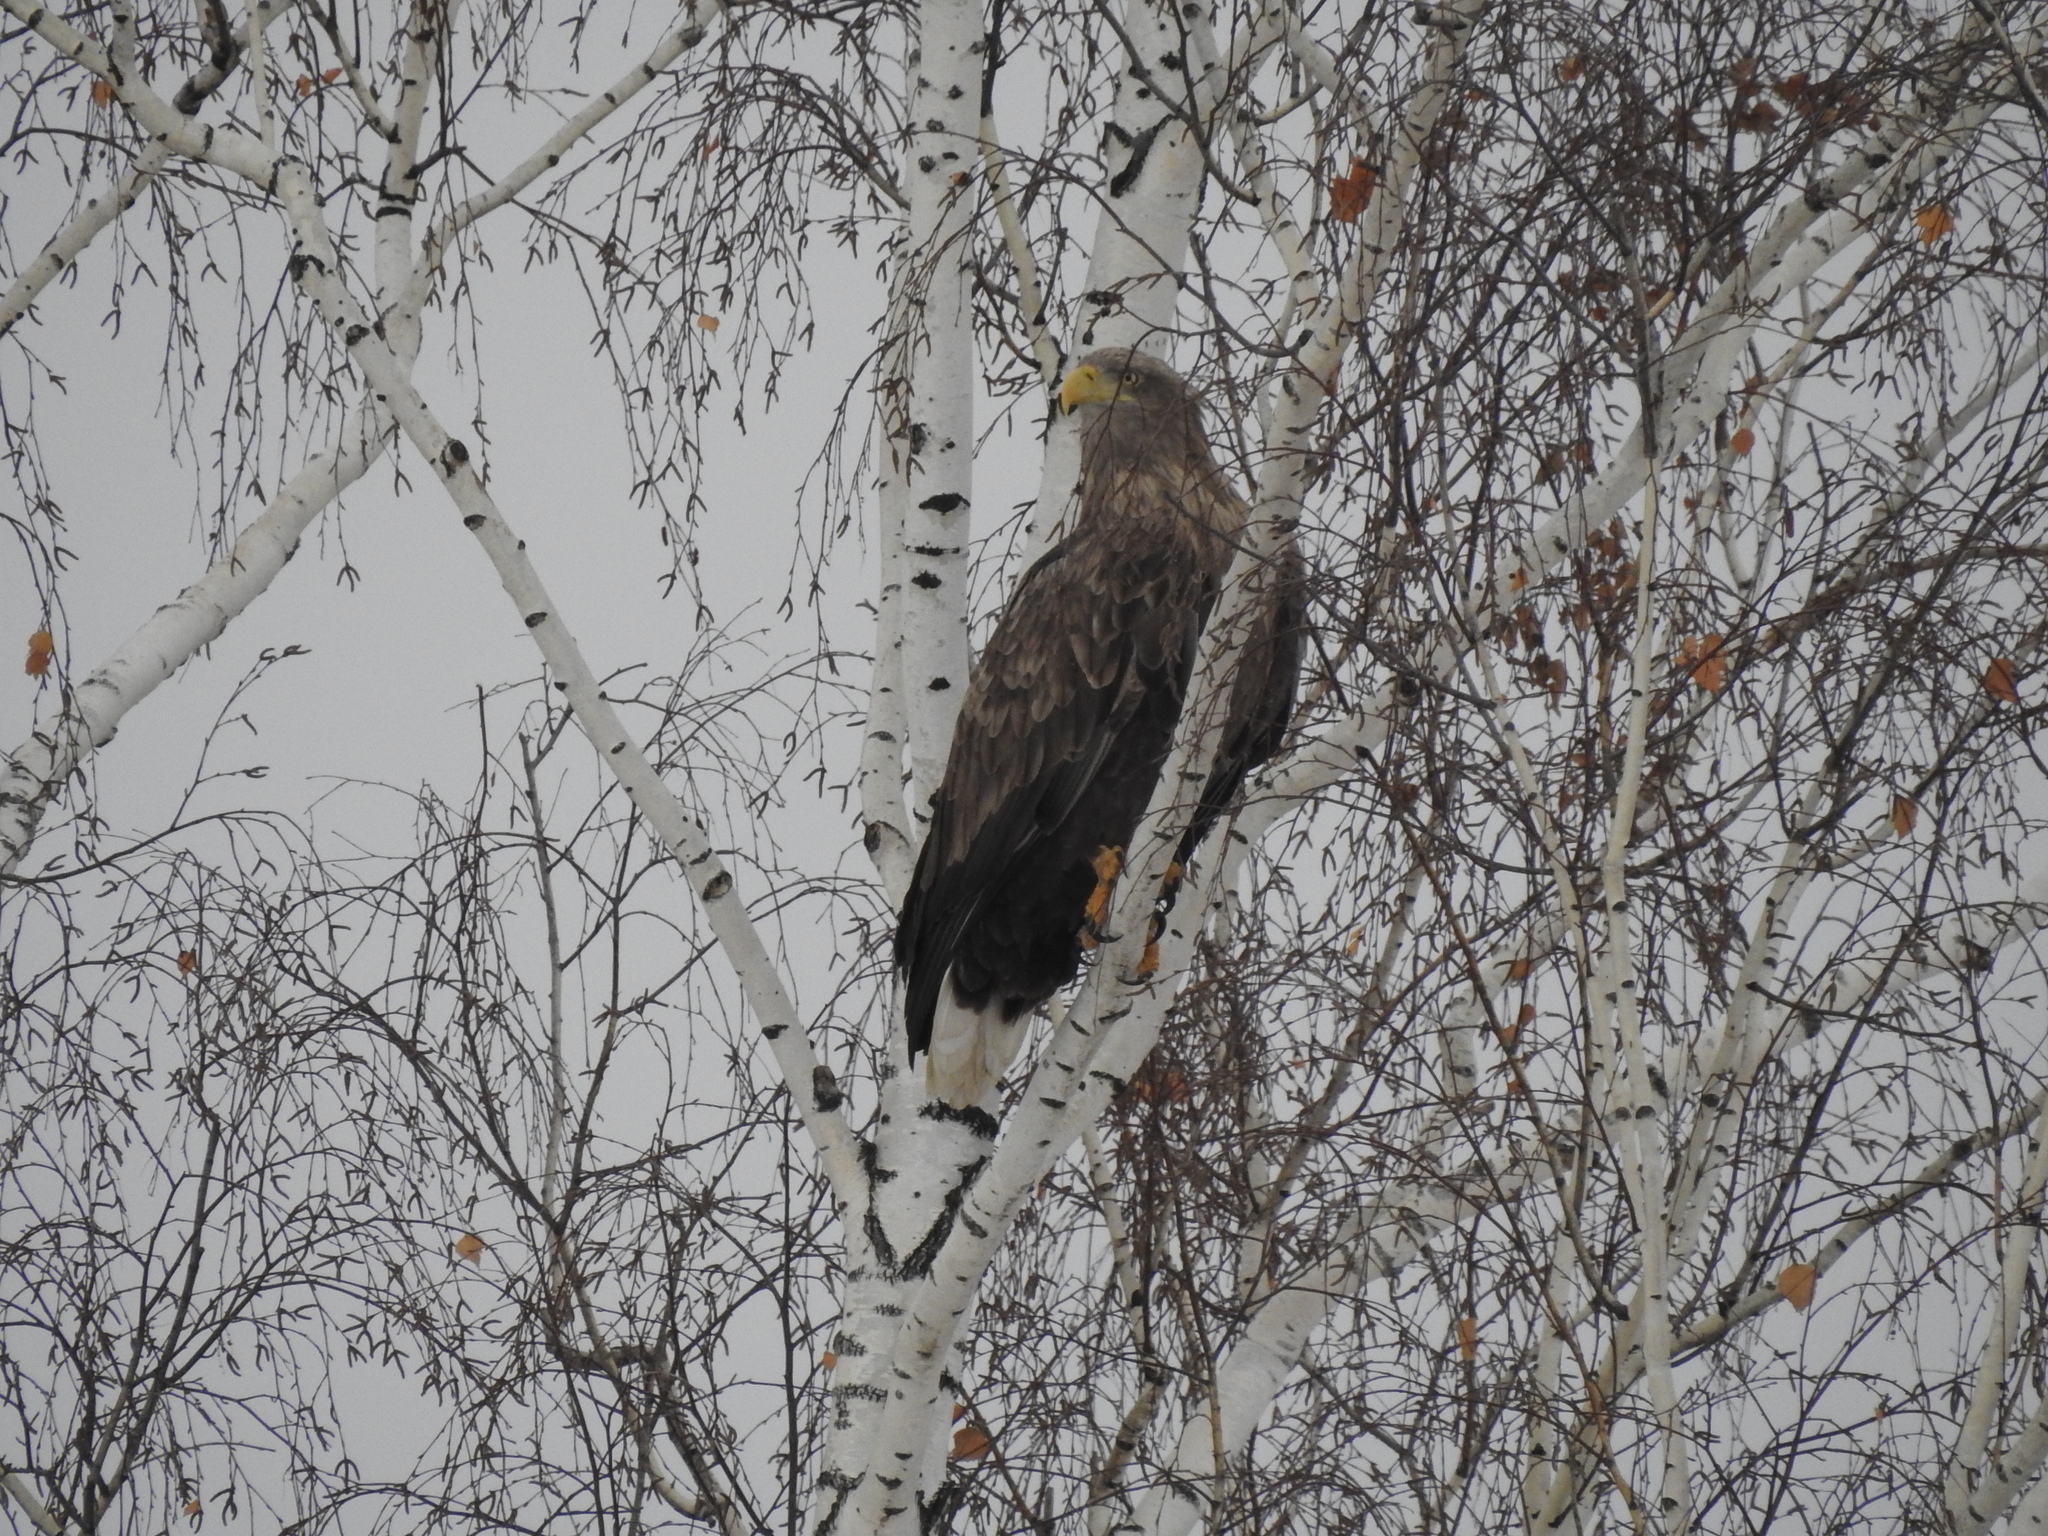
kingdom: Animalia
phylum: Chordata
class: Aves
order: Accipitriformes
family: Accipitridae
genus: Haliaeetus
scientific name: Haliaeetus albicilla
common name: White-tailed eagle
